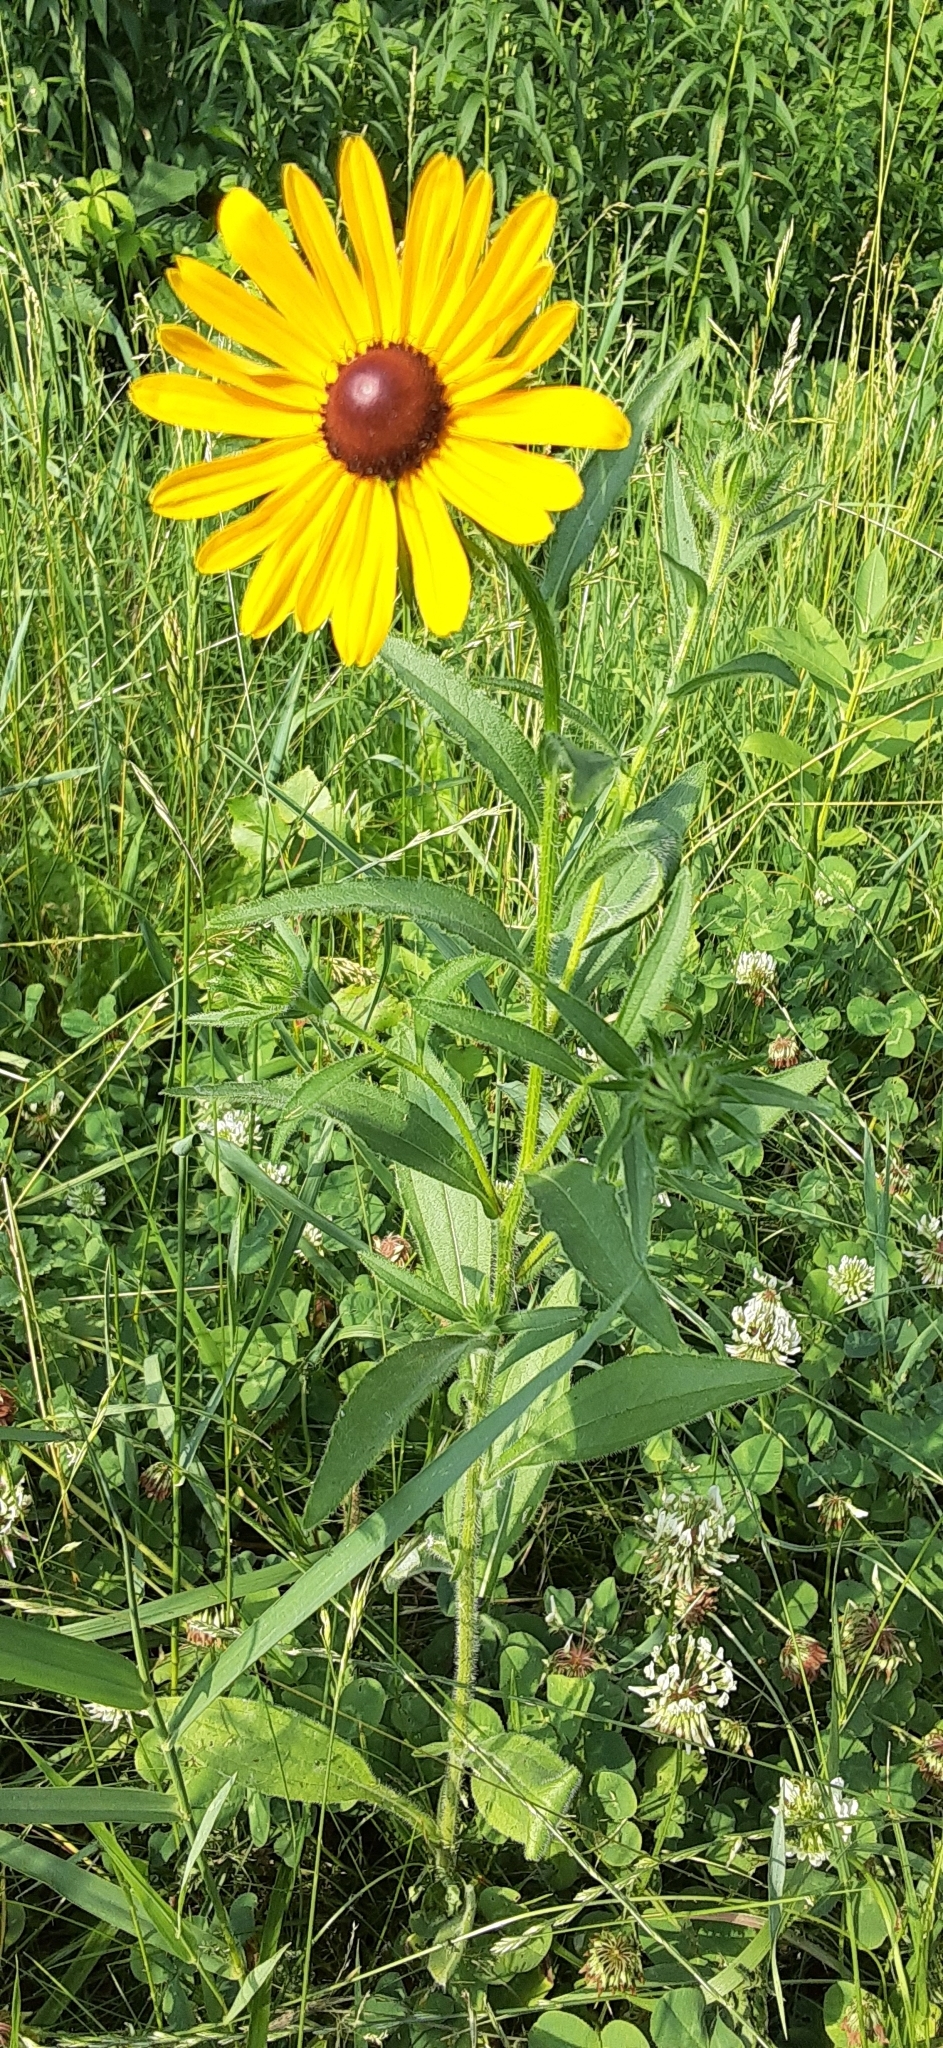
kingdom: Plantae
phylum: Tracheophyta
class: Magnoliopsida
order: Asterales
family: Asteraceae
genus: Rudbeckia
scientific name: Rudbeckia hirta
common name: Black-eyed-susan
